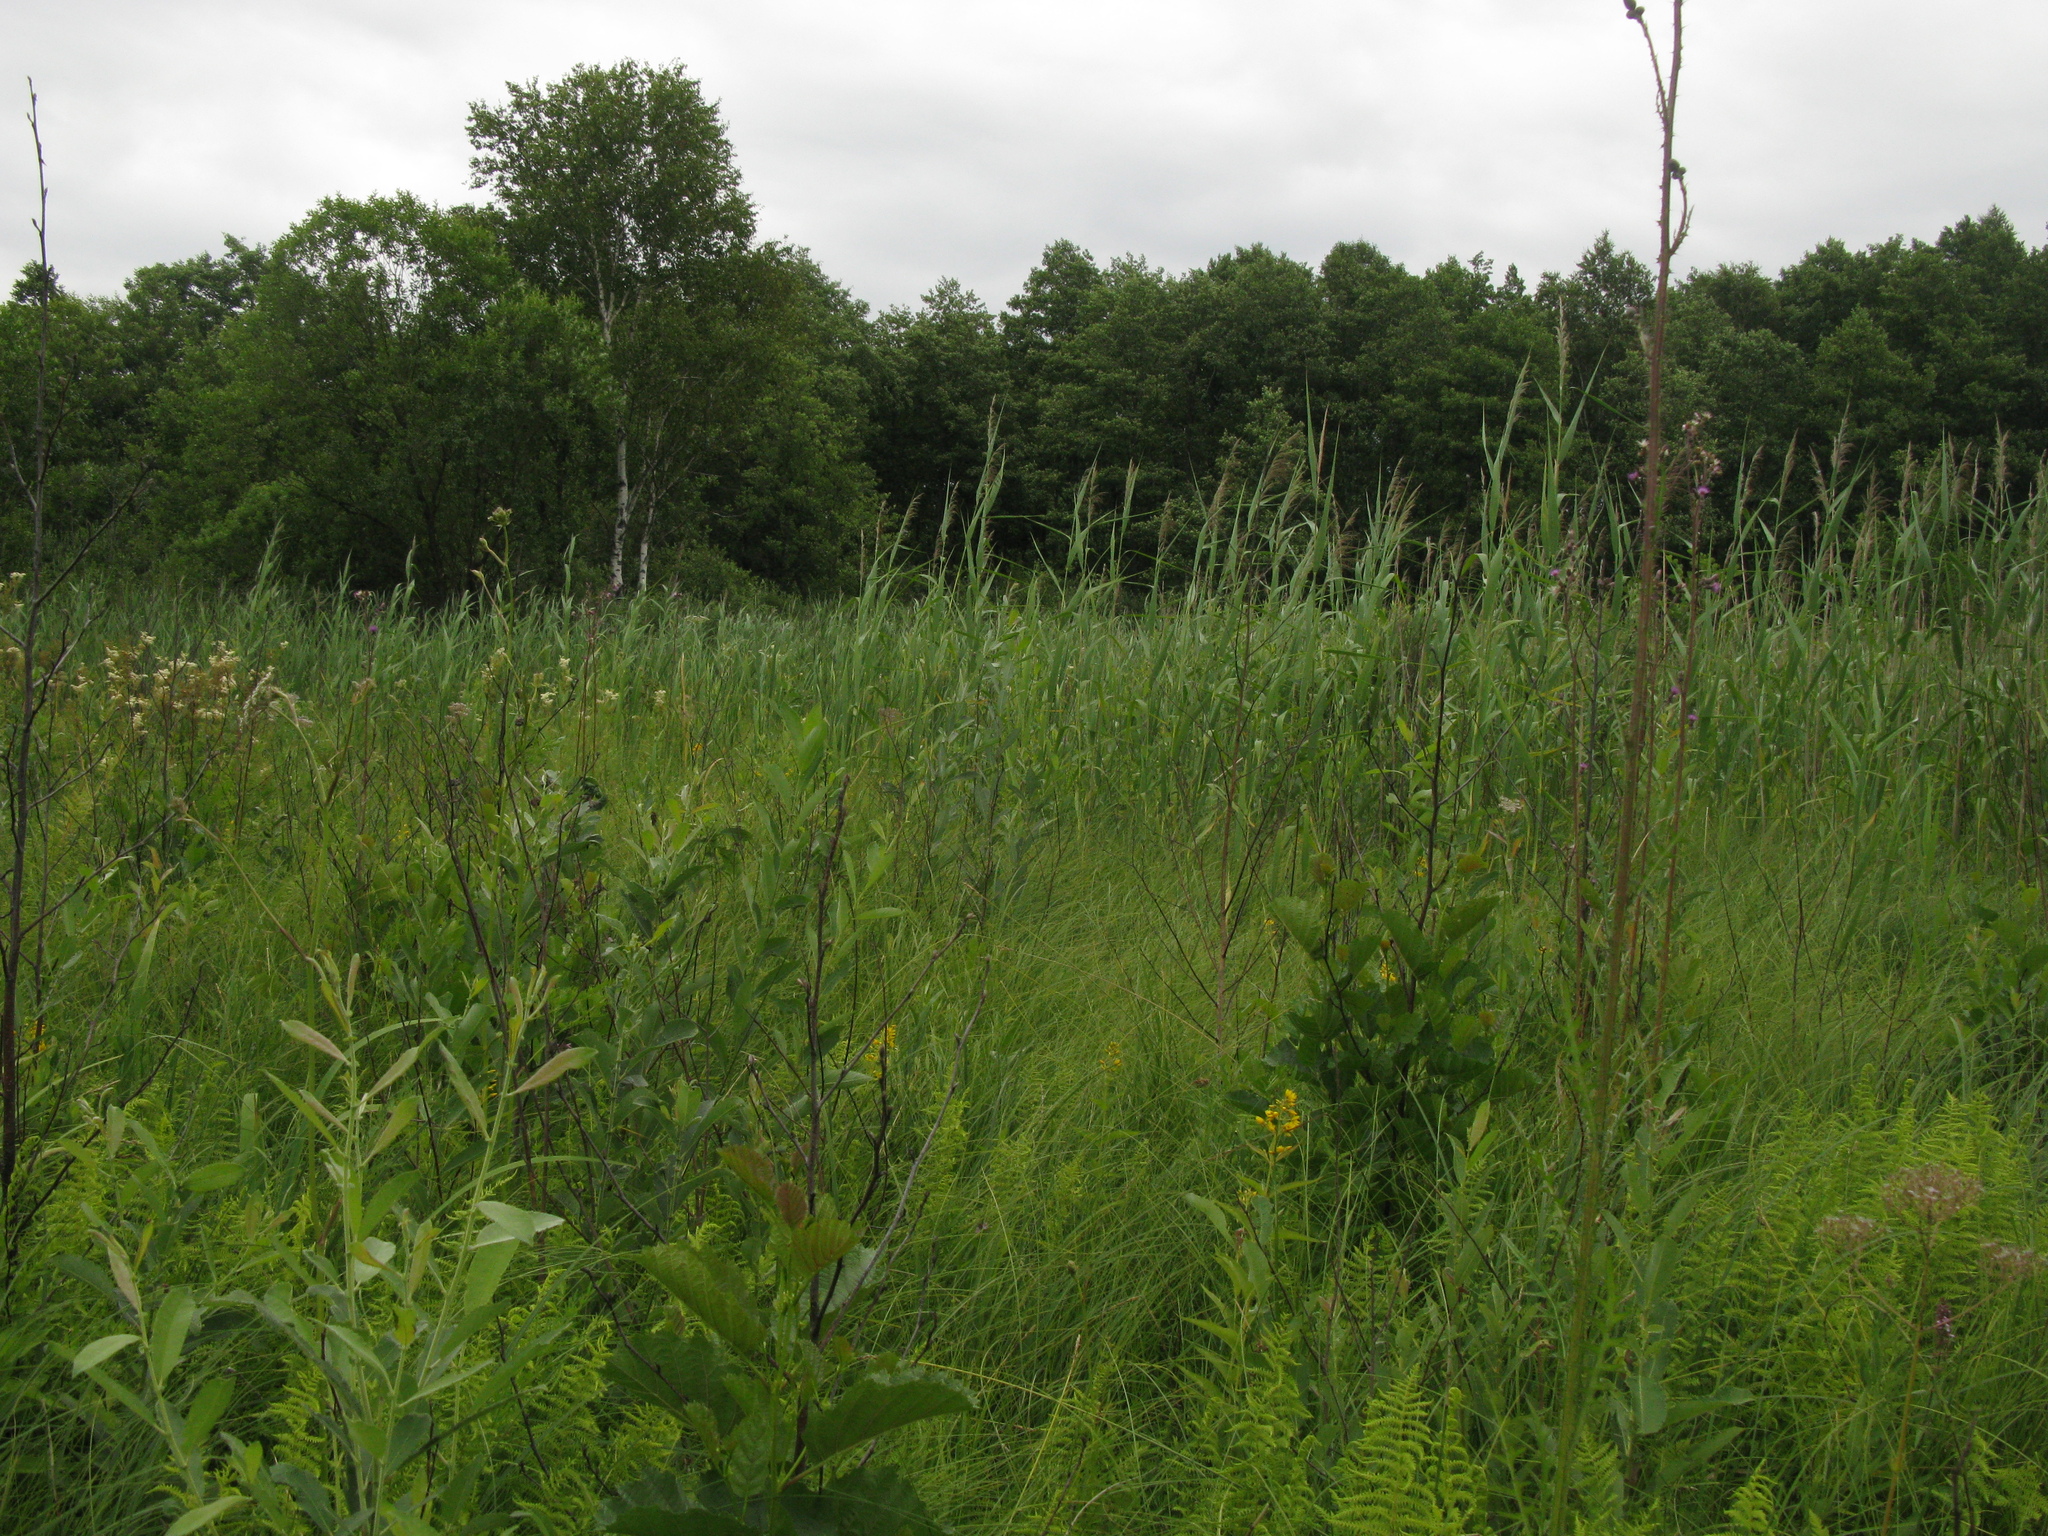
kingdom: Plantae
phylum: Tracheophyta
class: Magnoliopsida
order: Asterales
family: Asteraceae
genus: Cirsium
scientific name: Cirsium palustre
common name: Marsh thistle
